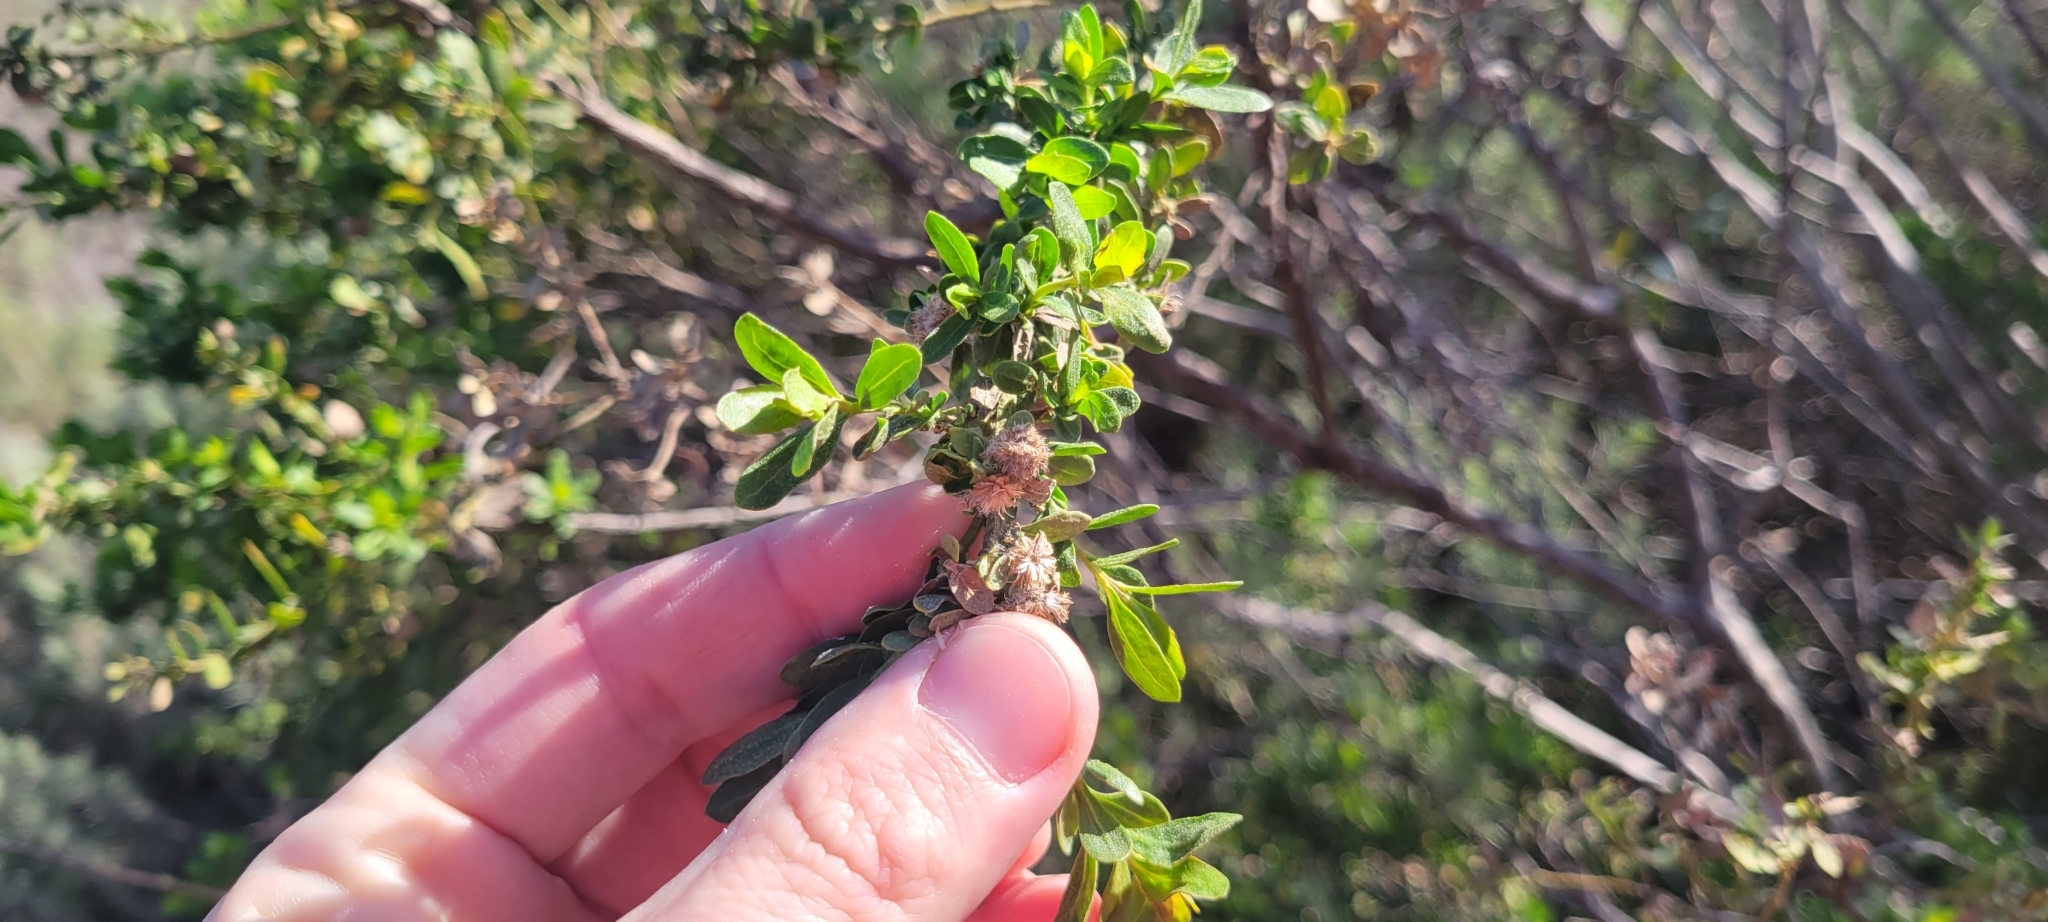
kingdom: Plantae
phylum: Tracheophyta
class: Magnoliopsida
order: Asterales
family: Asteraceae
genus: Baccharis
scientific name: Baccharis pilularis
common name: Coyotebrush
